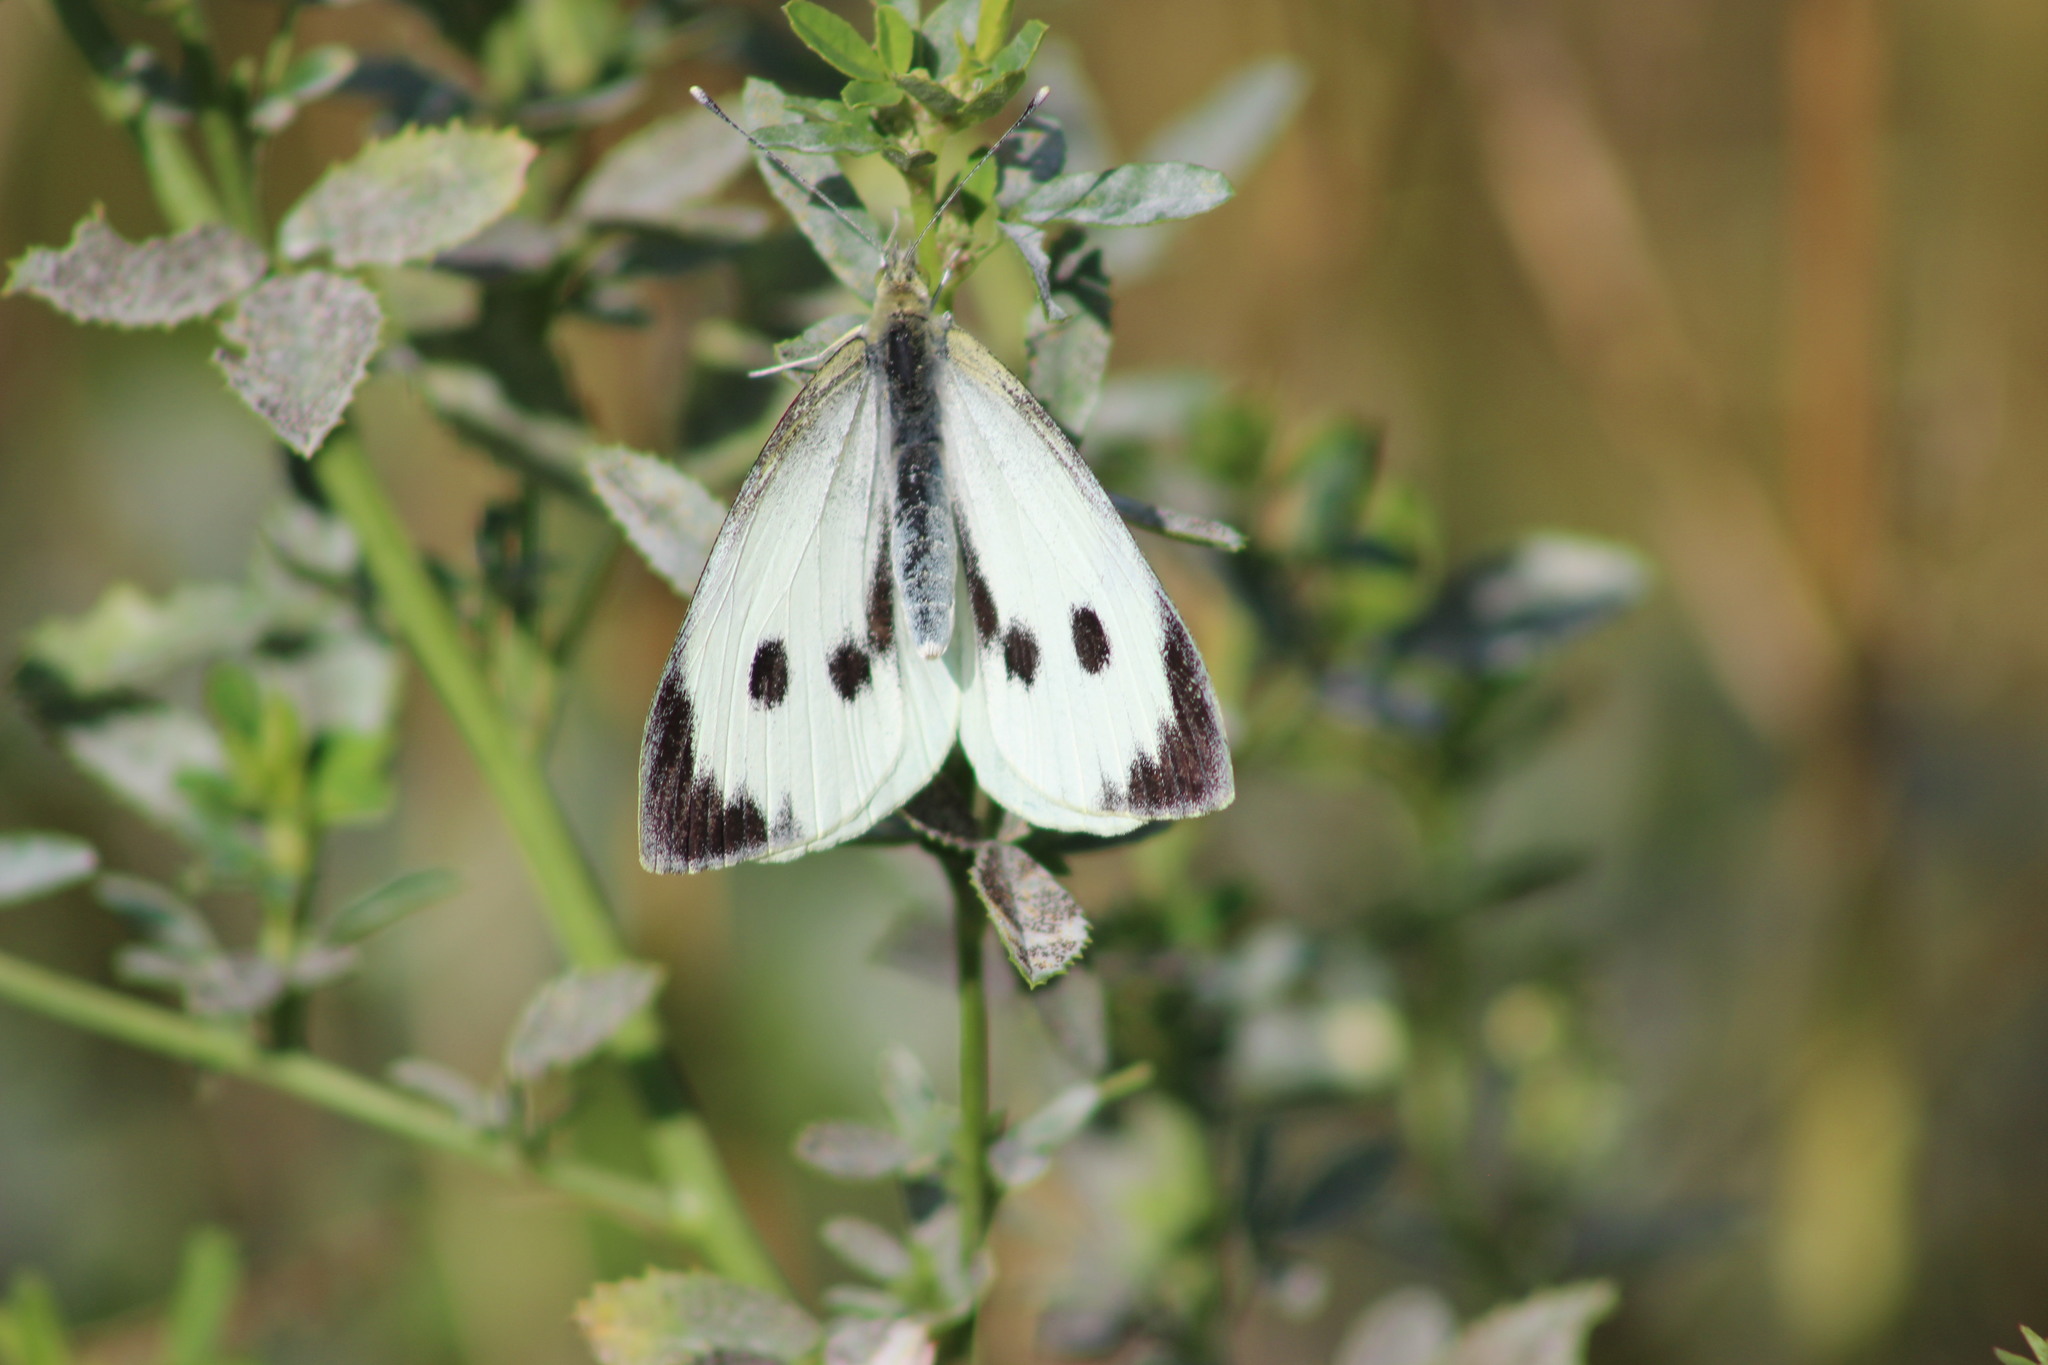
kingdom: Animalia
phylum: Arthropoda
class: Insecta
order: Lepidoptera
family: Pieridae
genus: Pieris
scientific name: Pieris brassicae
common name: Large white
